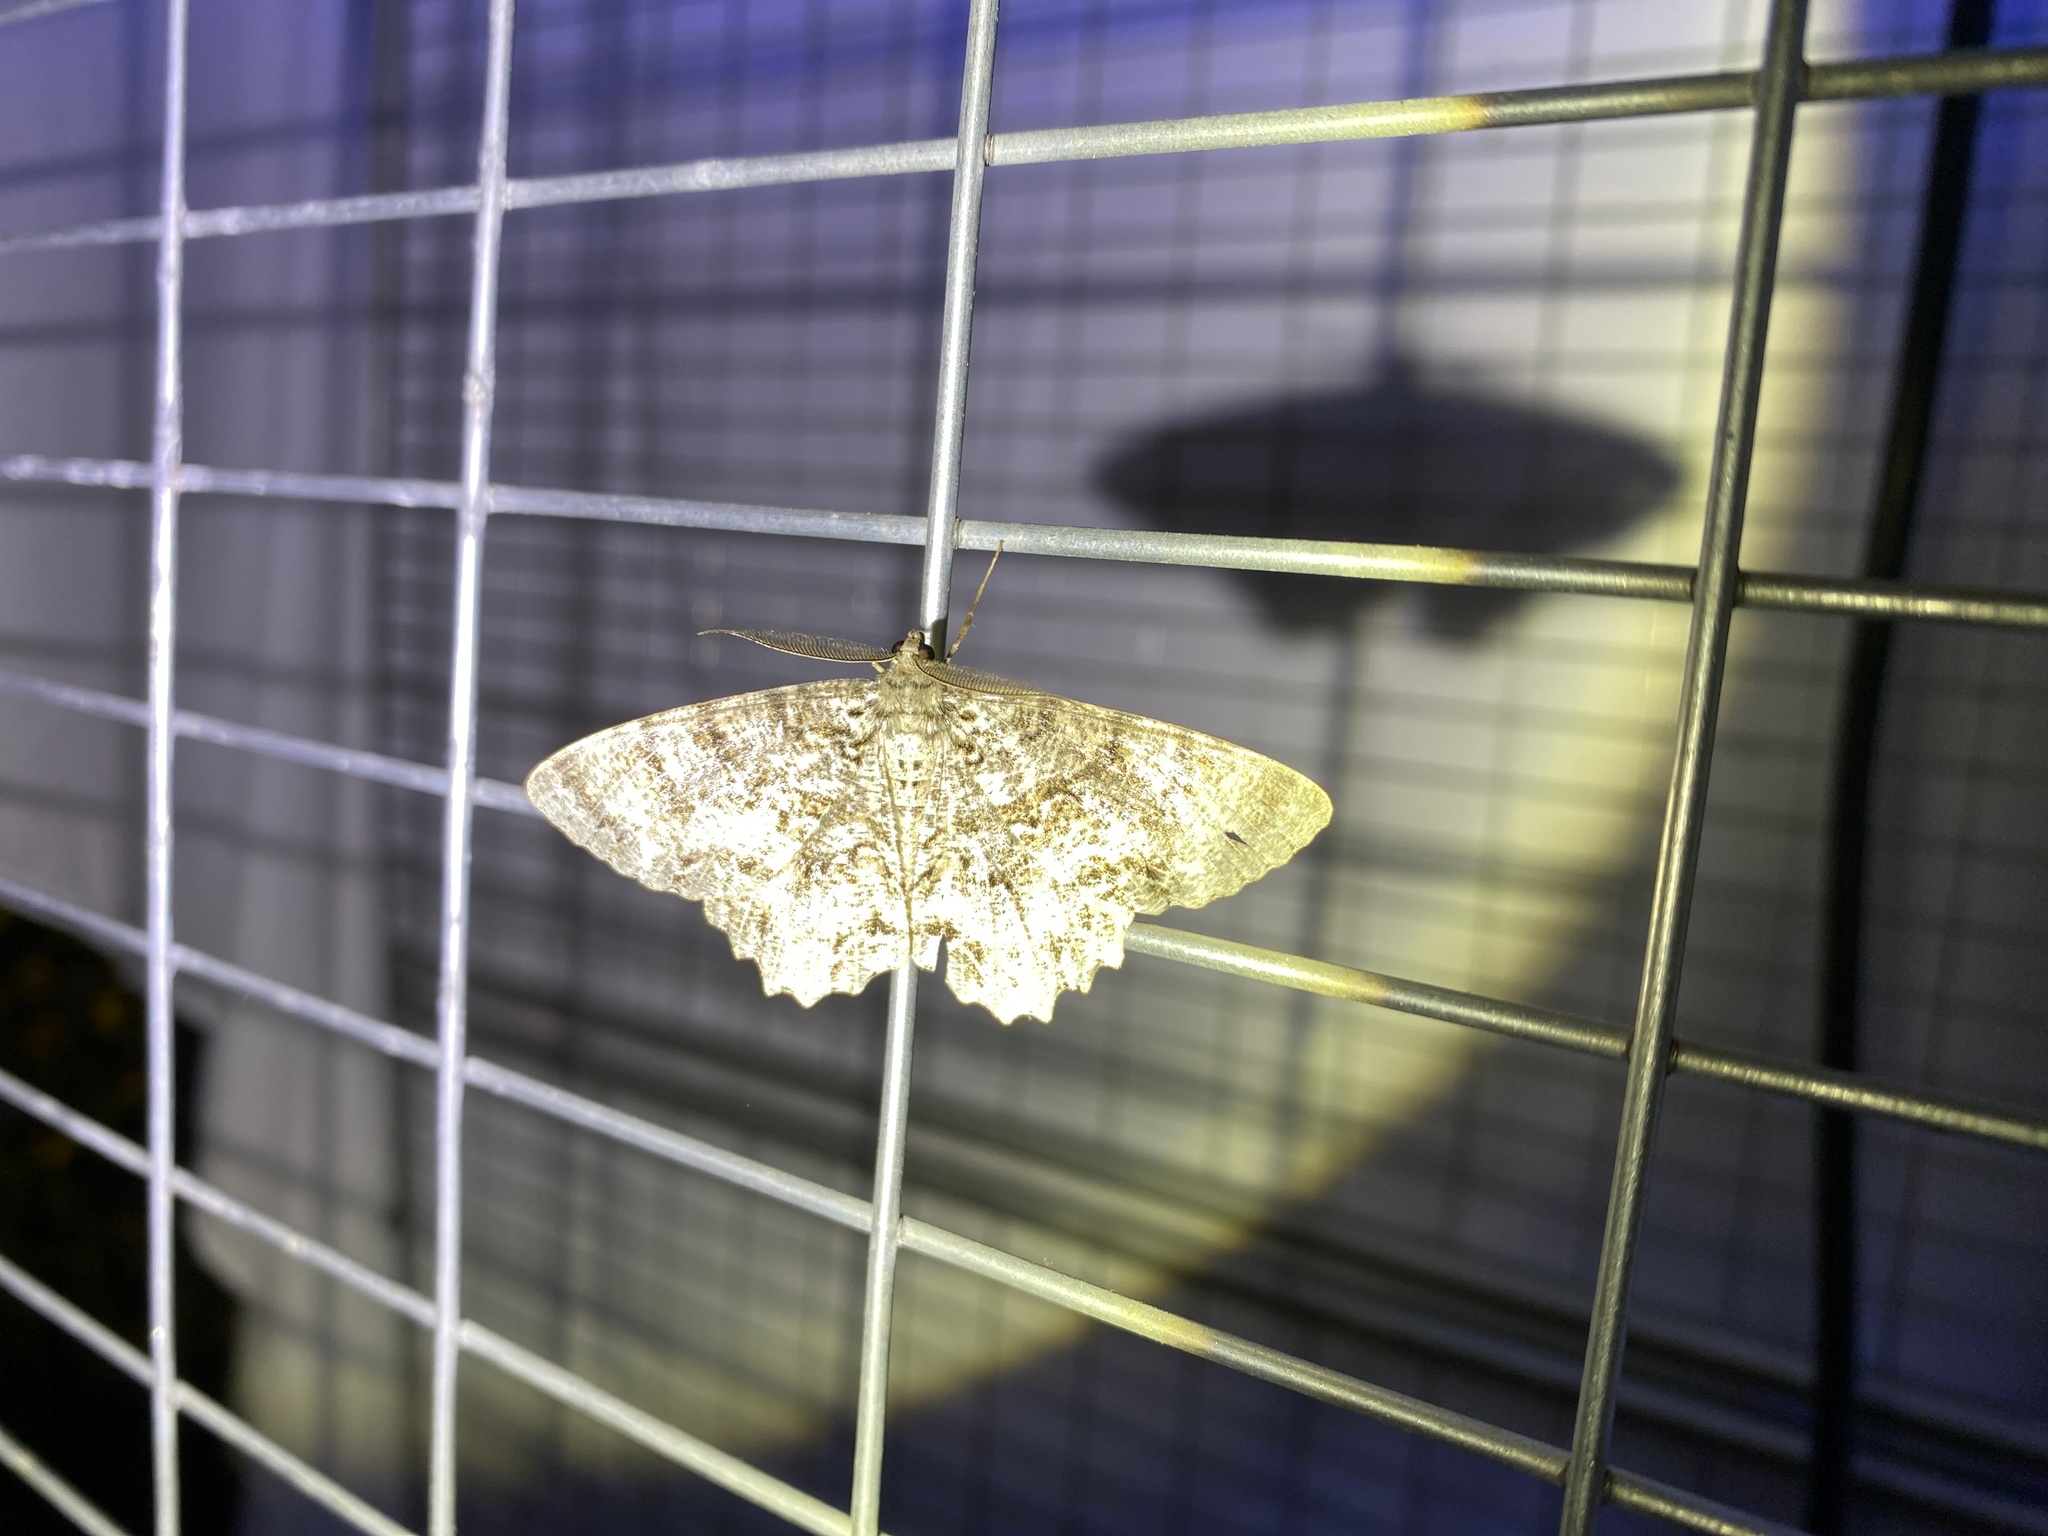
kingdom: Animalia
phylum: Arthropoda
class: Insecta
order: Lepidoptera
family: Geometridae
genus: Epimecis
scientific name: Epimecis hortaria
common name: Tulip-tree beauty
